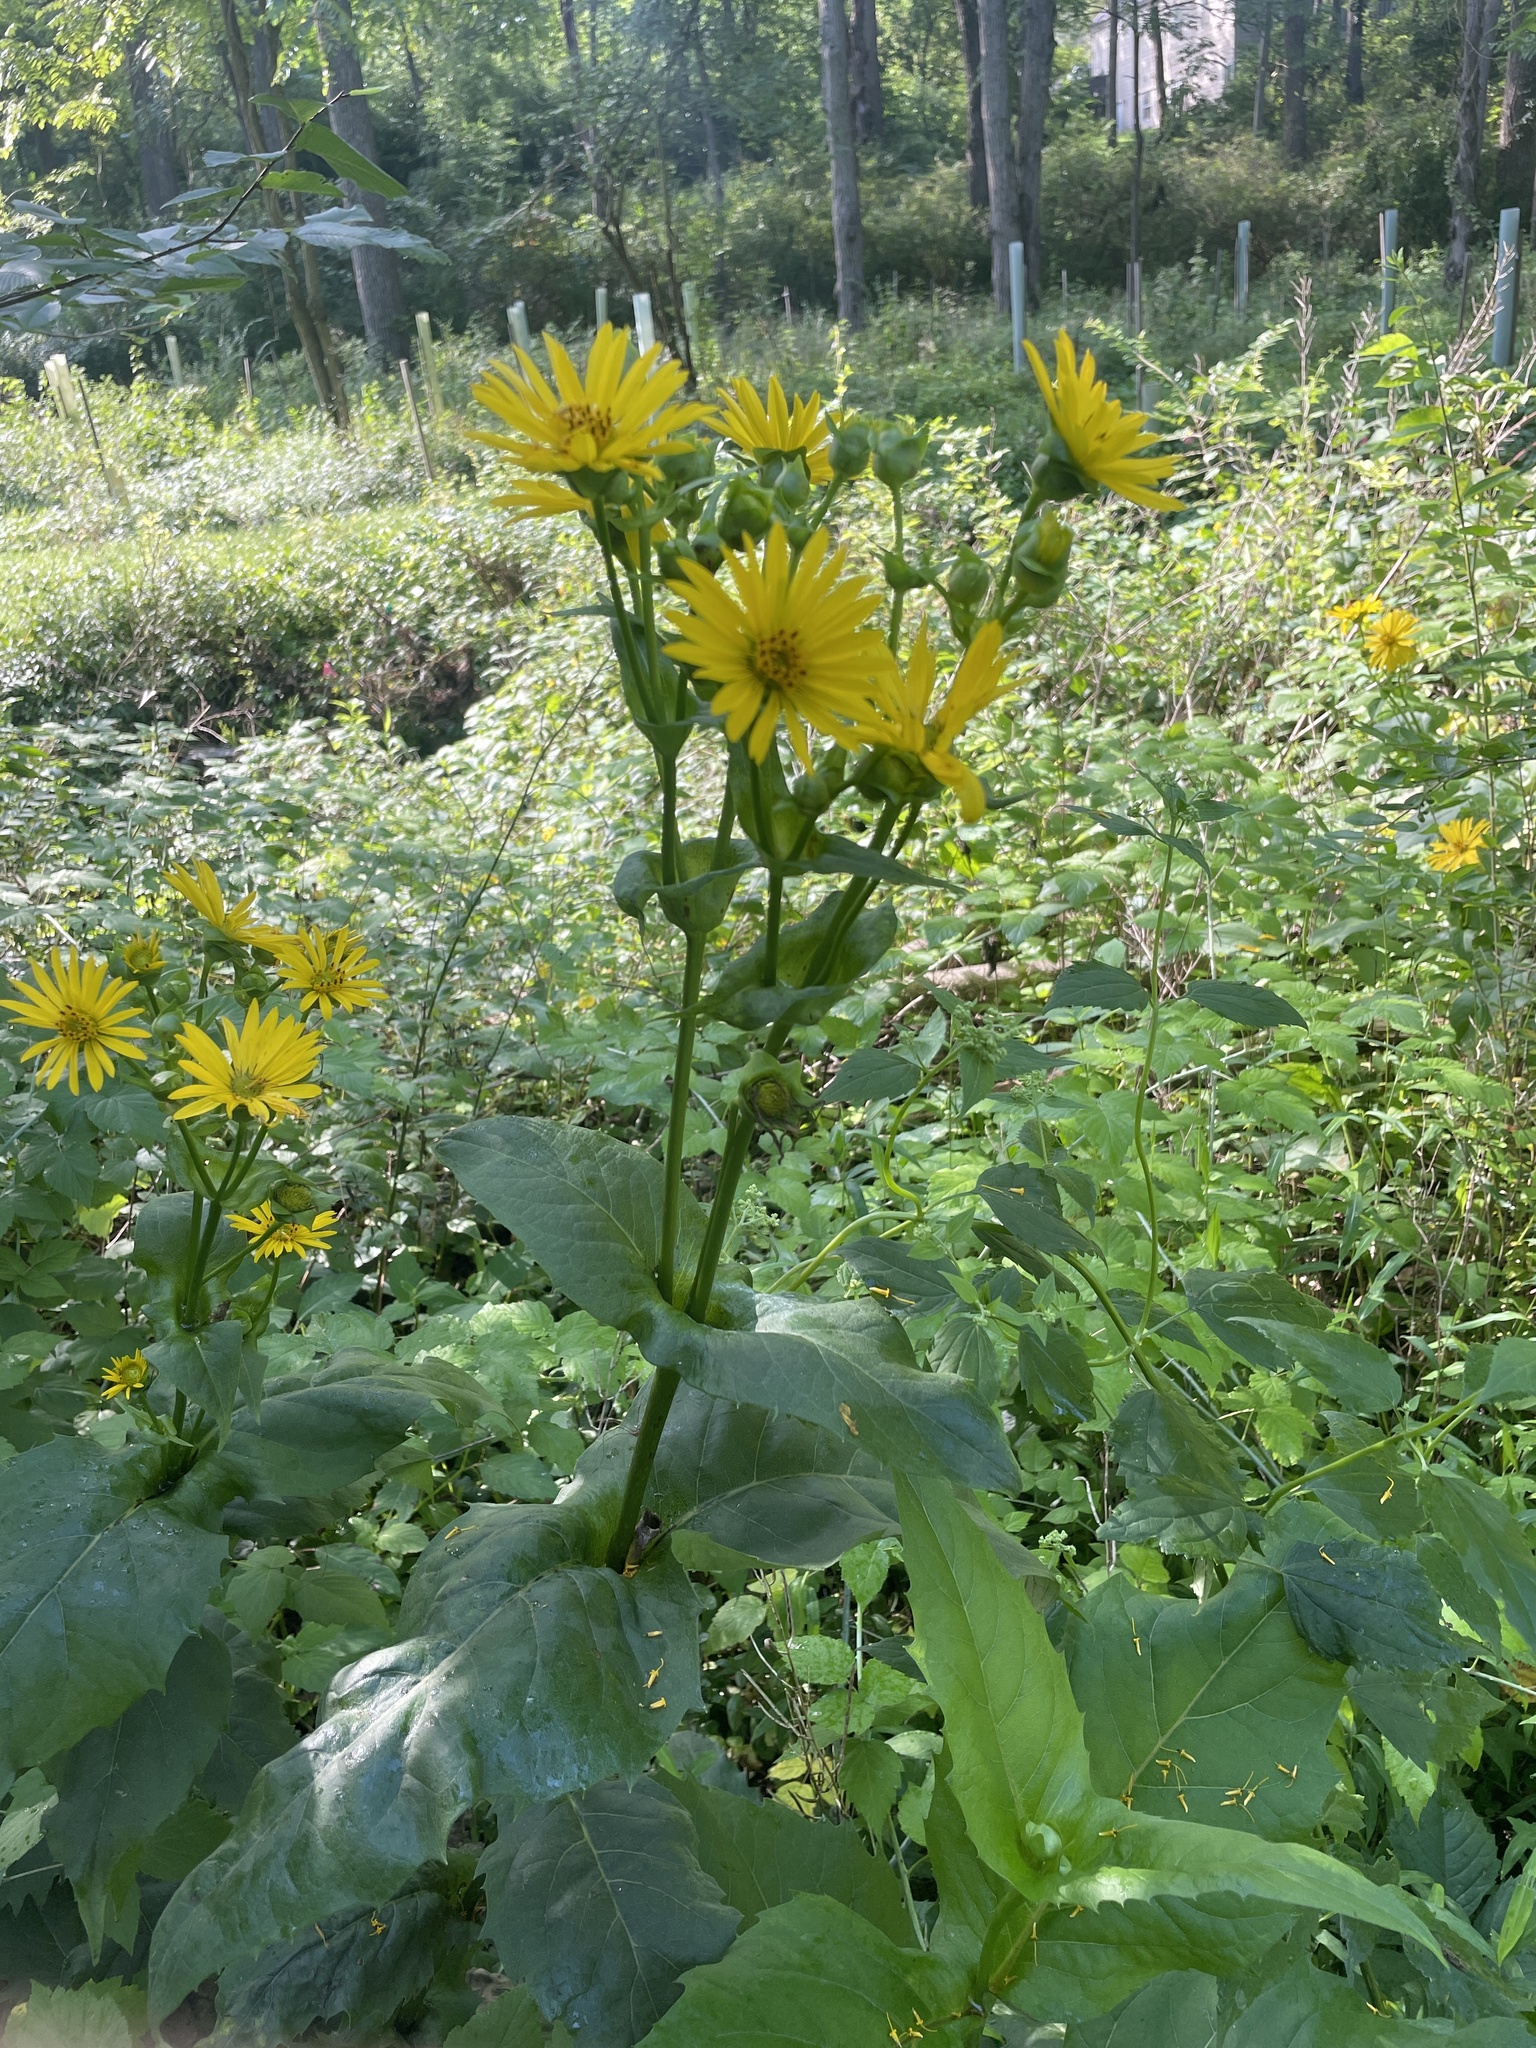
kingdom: Plantae
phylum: Tracheophyta
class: Magnoliopsida
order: Asterales
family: Asteraceae
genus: Silphium
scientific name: Silphium perfoliatum
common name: Cup-plant
